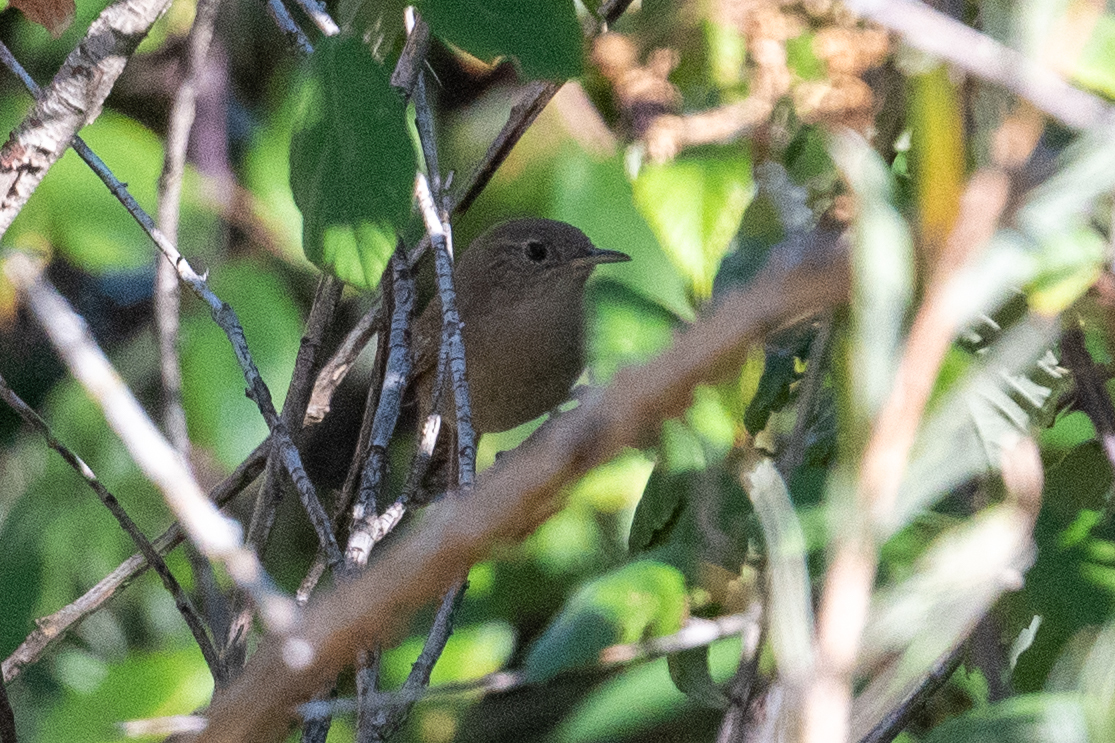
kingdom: Animalia
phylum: Chordata
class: Aves
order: Passeriformes
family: Troglodytidae
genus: Troglodytes
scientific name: Troglodytes aedon
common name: House wren
